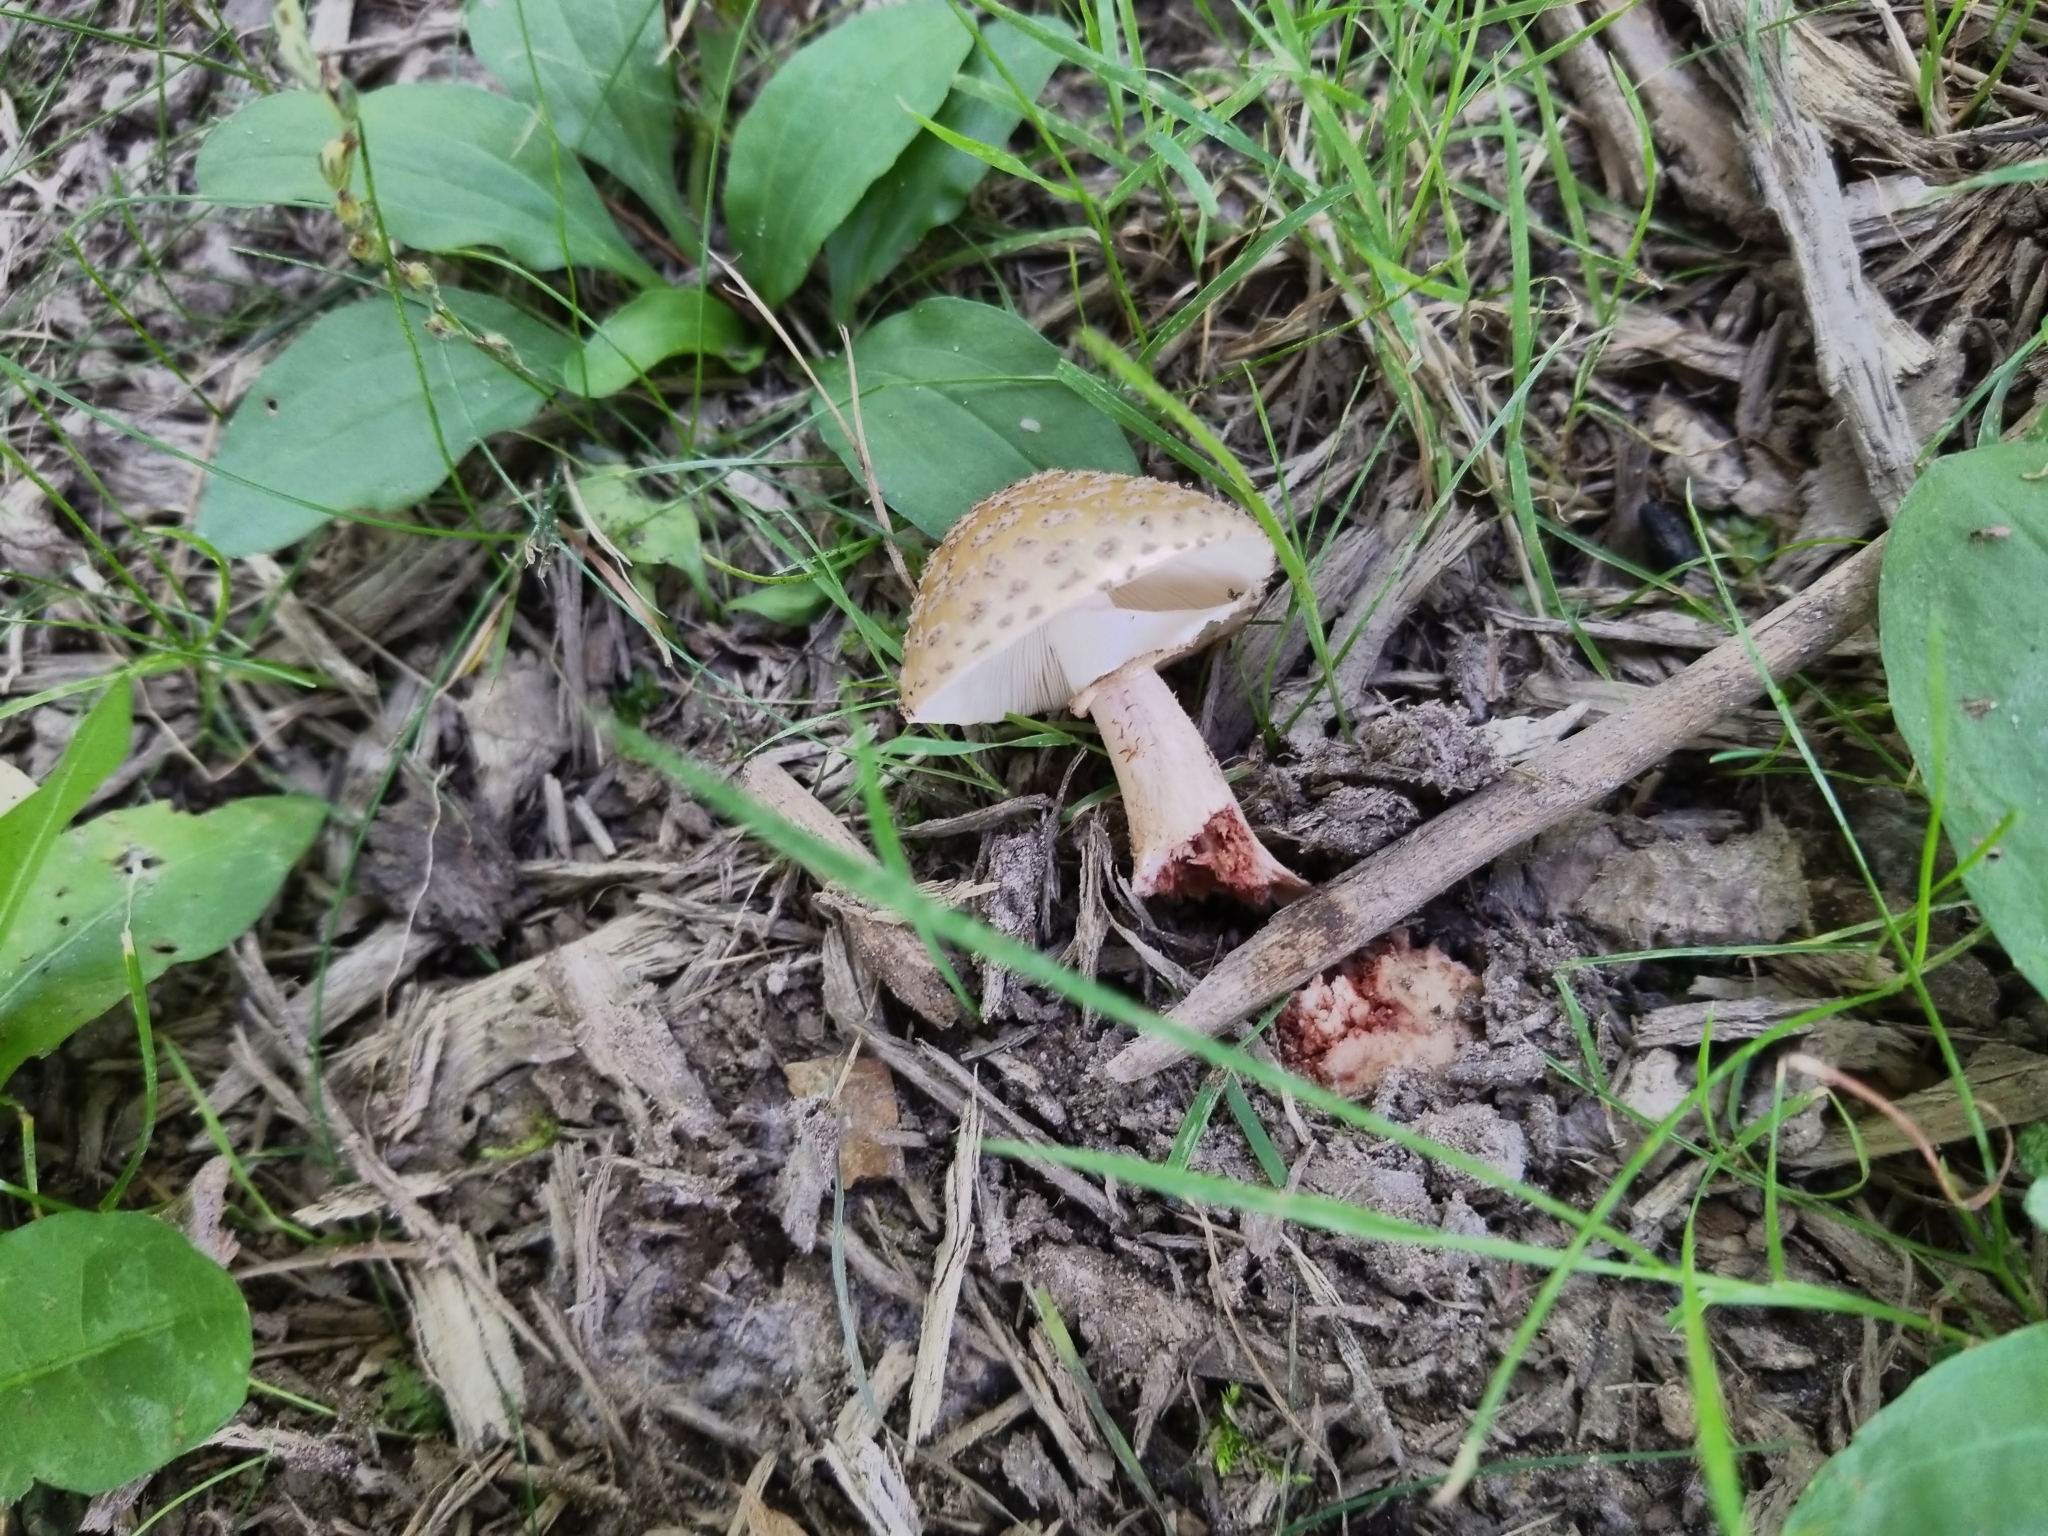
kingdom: Fungi
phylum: Basidiomycota
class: Agaricomycetes
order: Agaricales
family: Amanitaceae
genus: Amanita
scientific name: Amanita flavorubens
